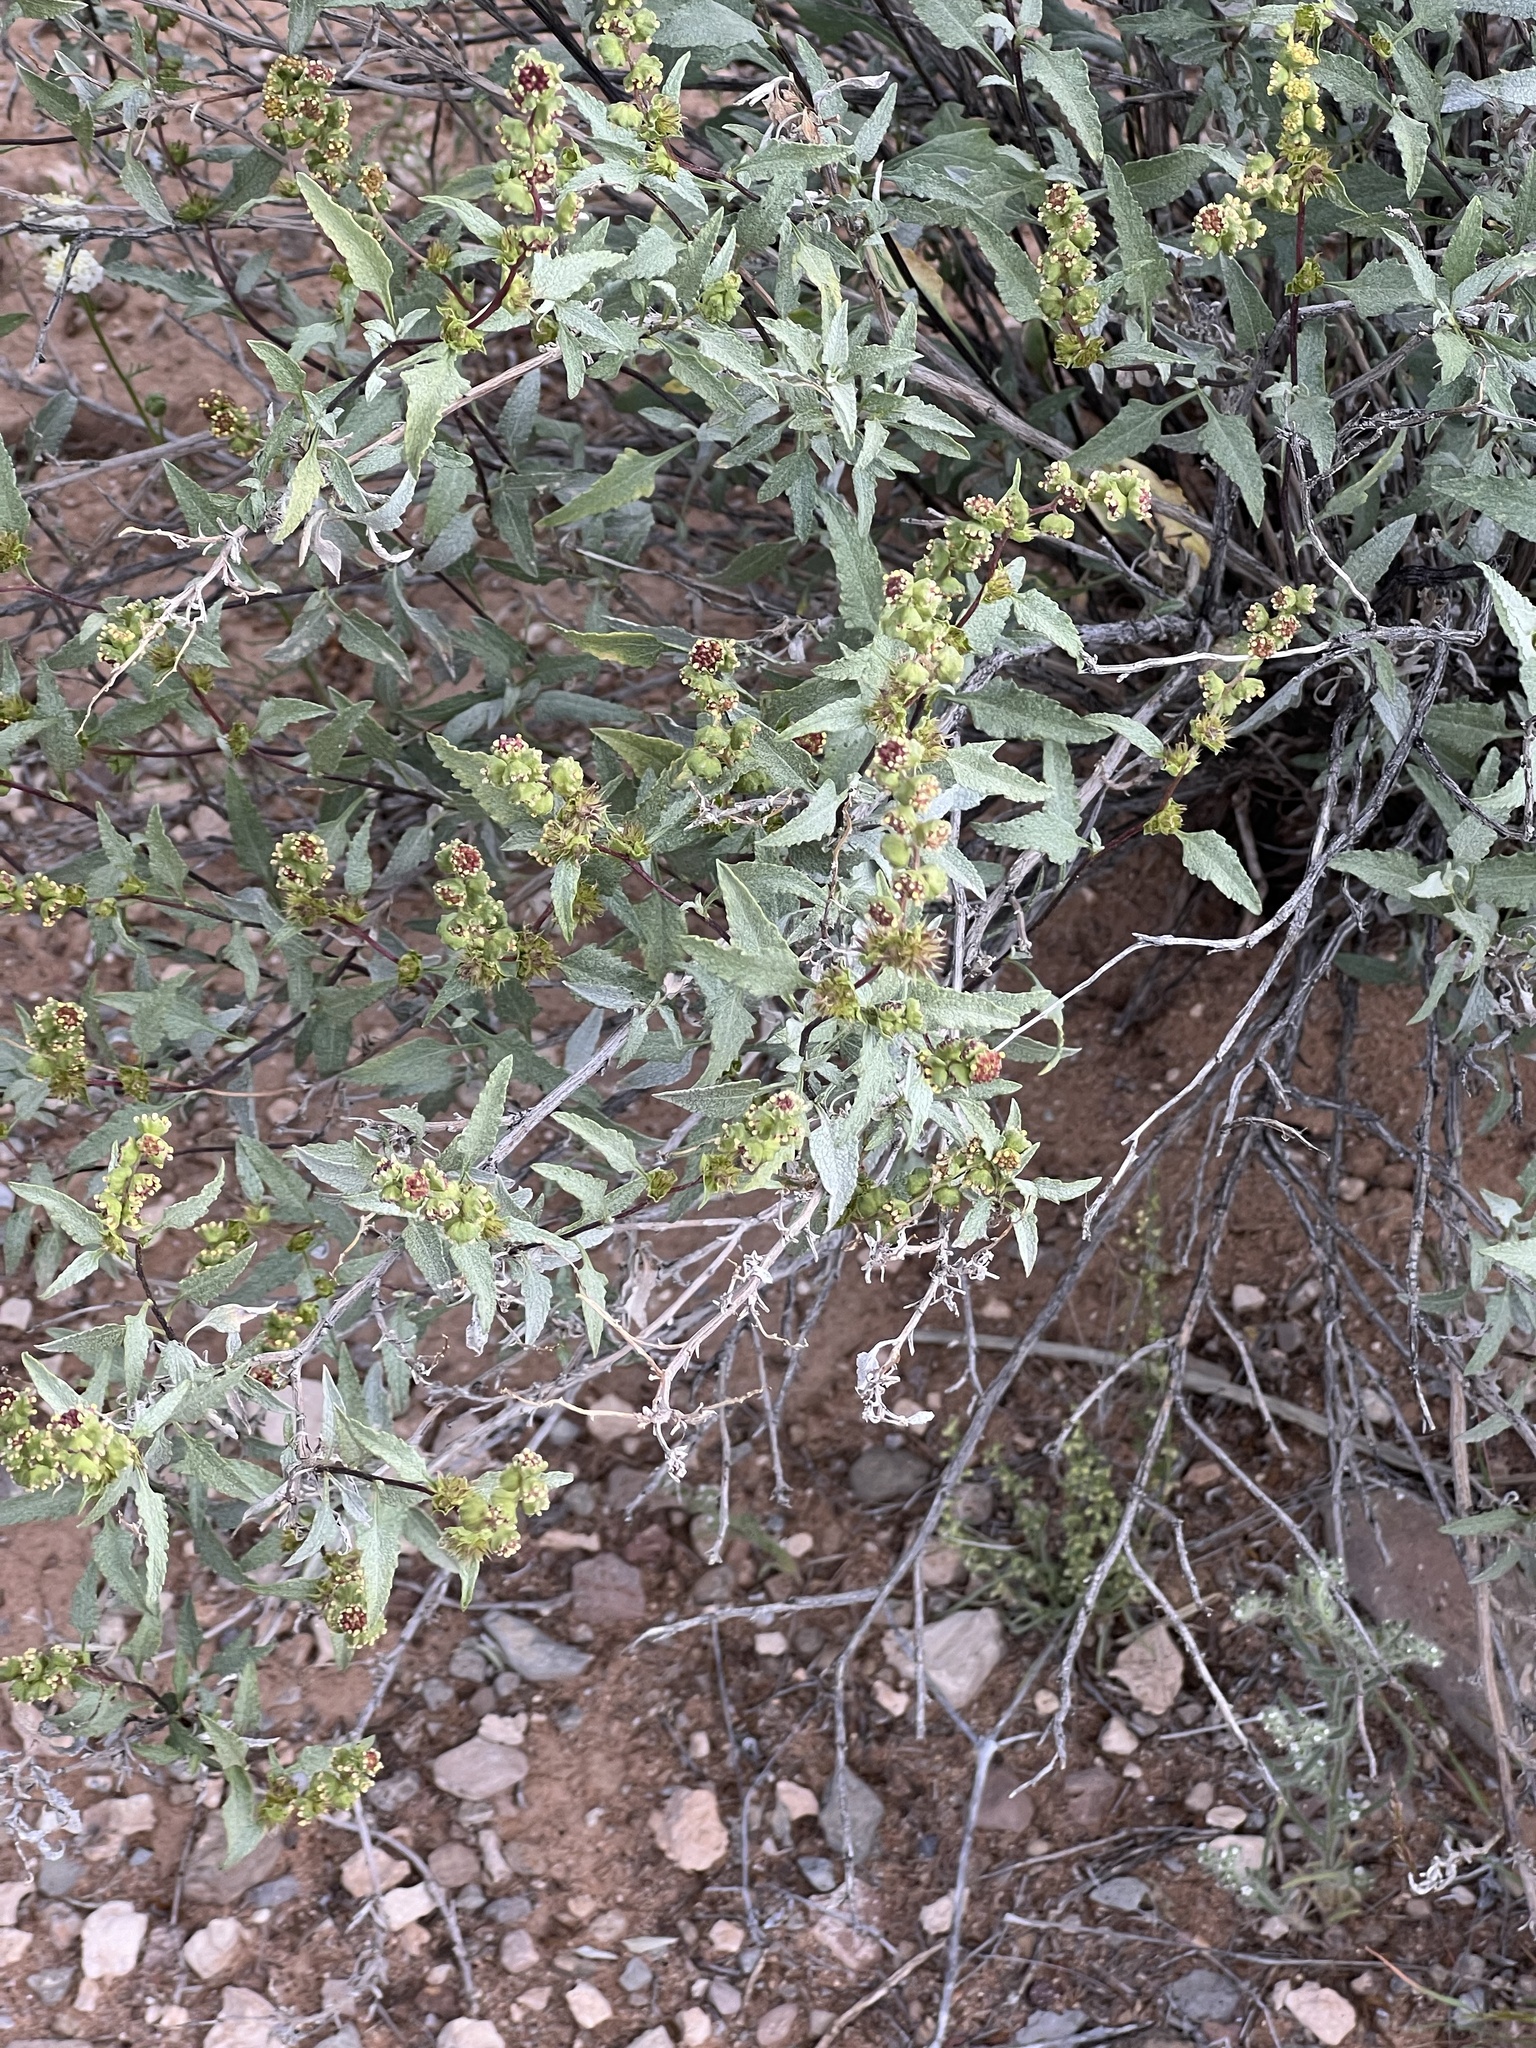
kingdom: Plantae
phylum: Tracheophyta
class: Magnoliopsida
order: Asterales
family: Asteraceae
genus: Ambrosia
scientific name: Ambrosia deltoidea
